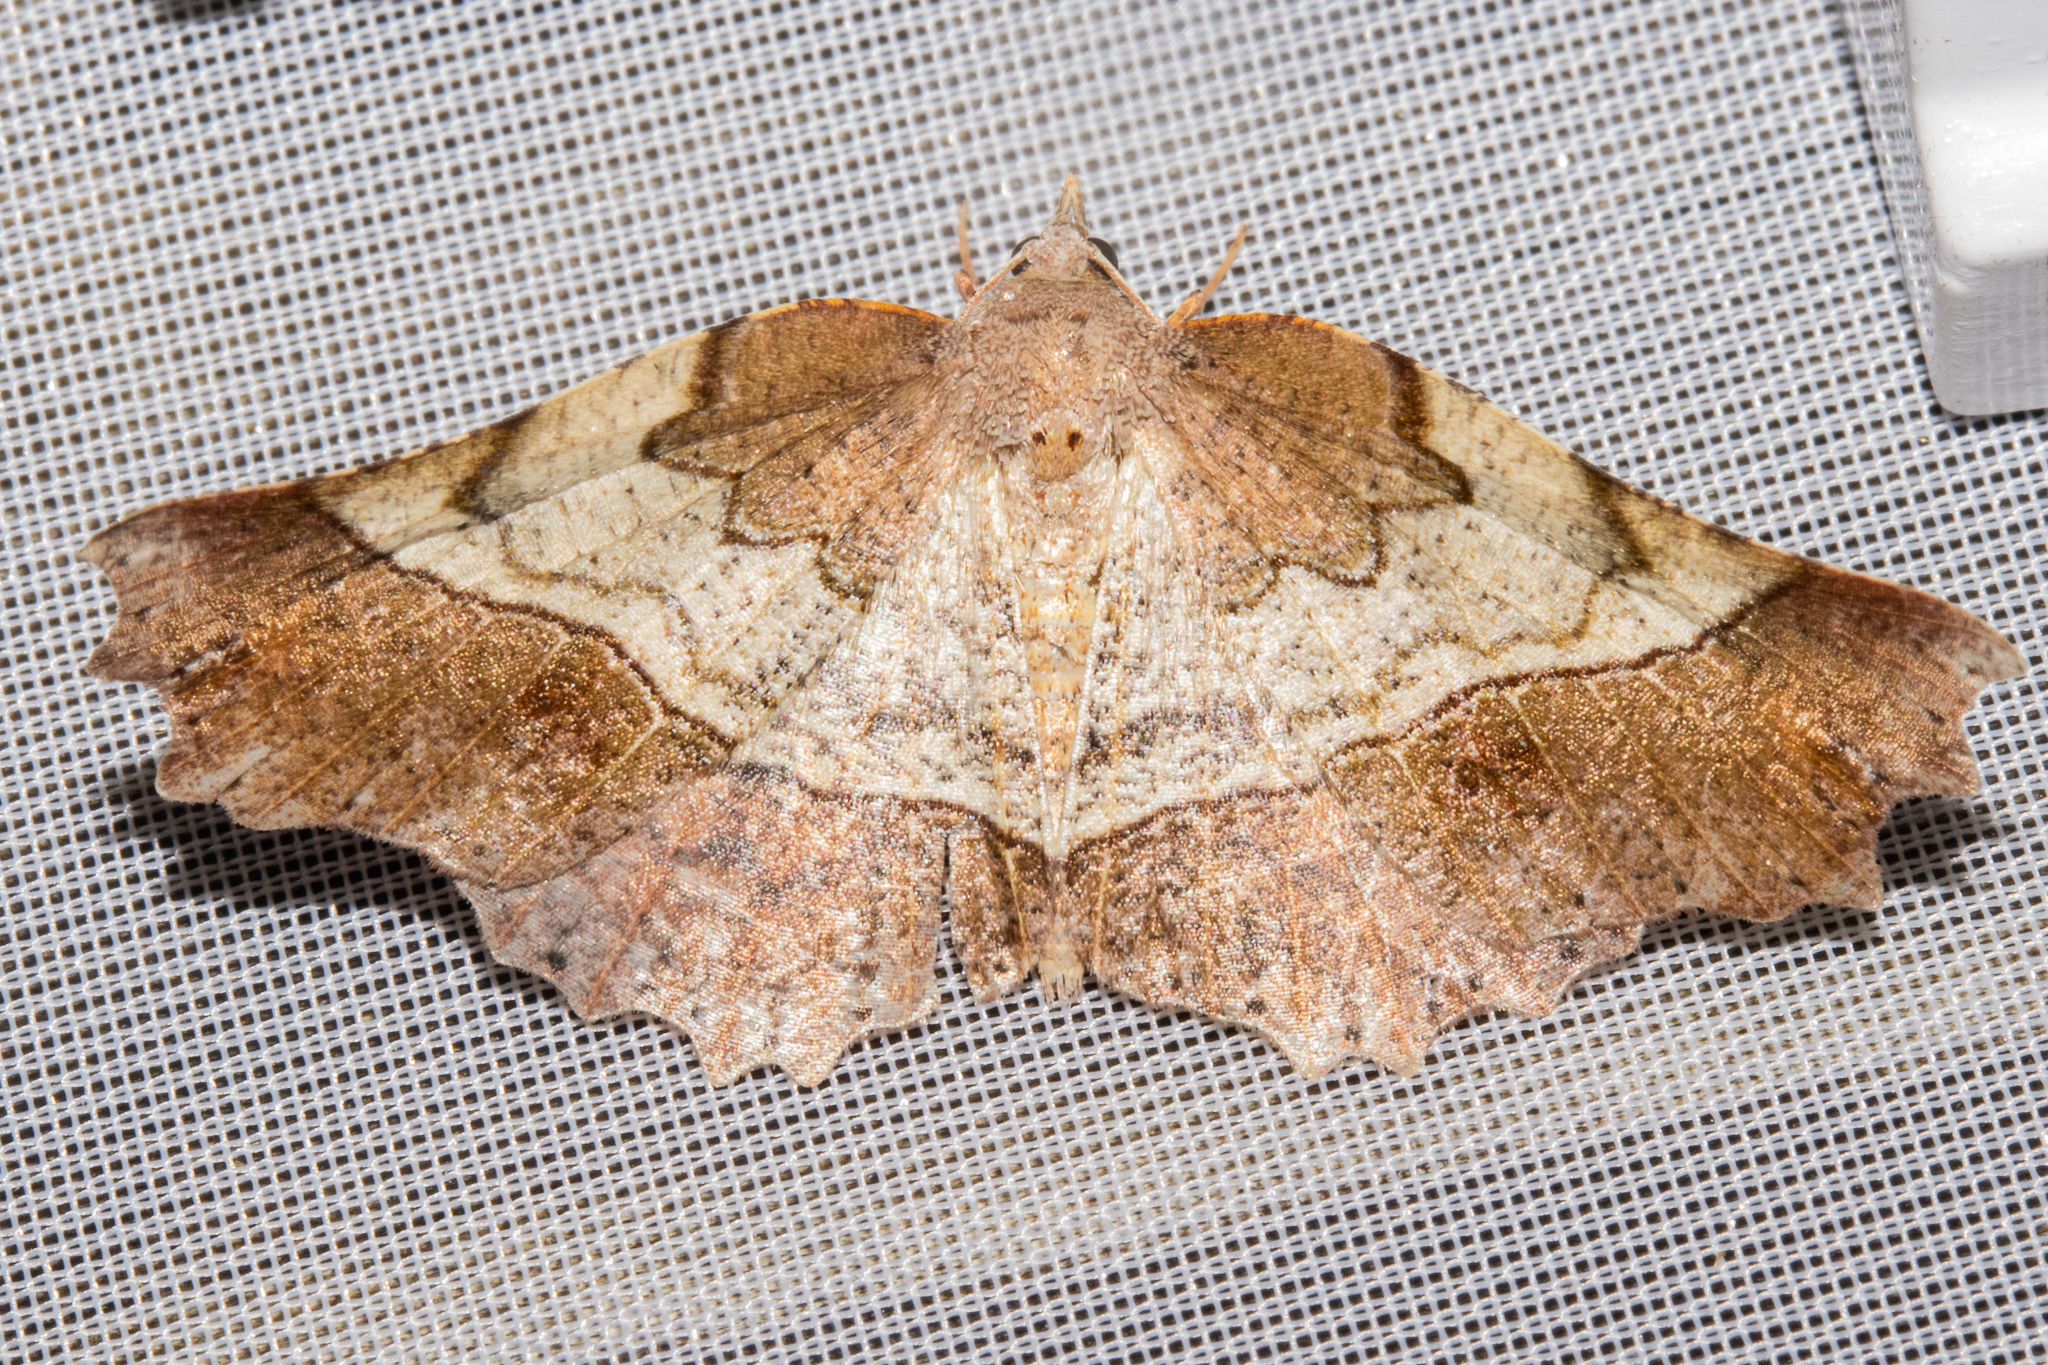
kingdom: Animalia
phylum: Arthropoda
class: Insecta
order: Lepidoptera
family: Geometridae
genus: Ischalis
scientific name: Ischalis gallaria
